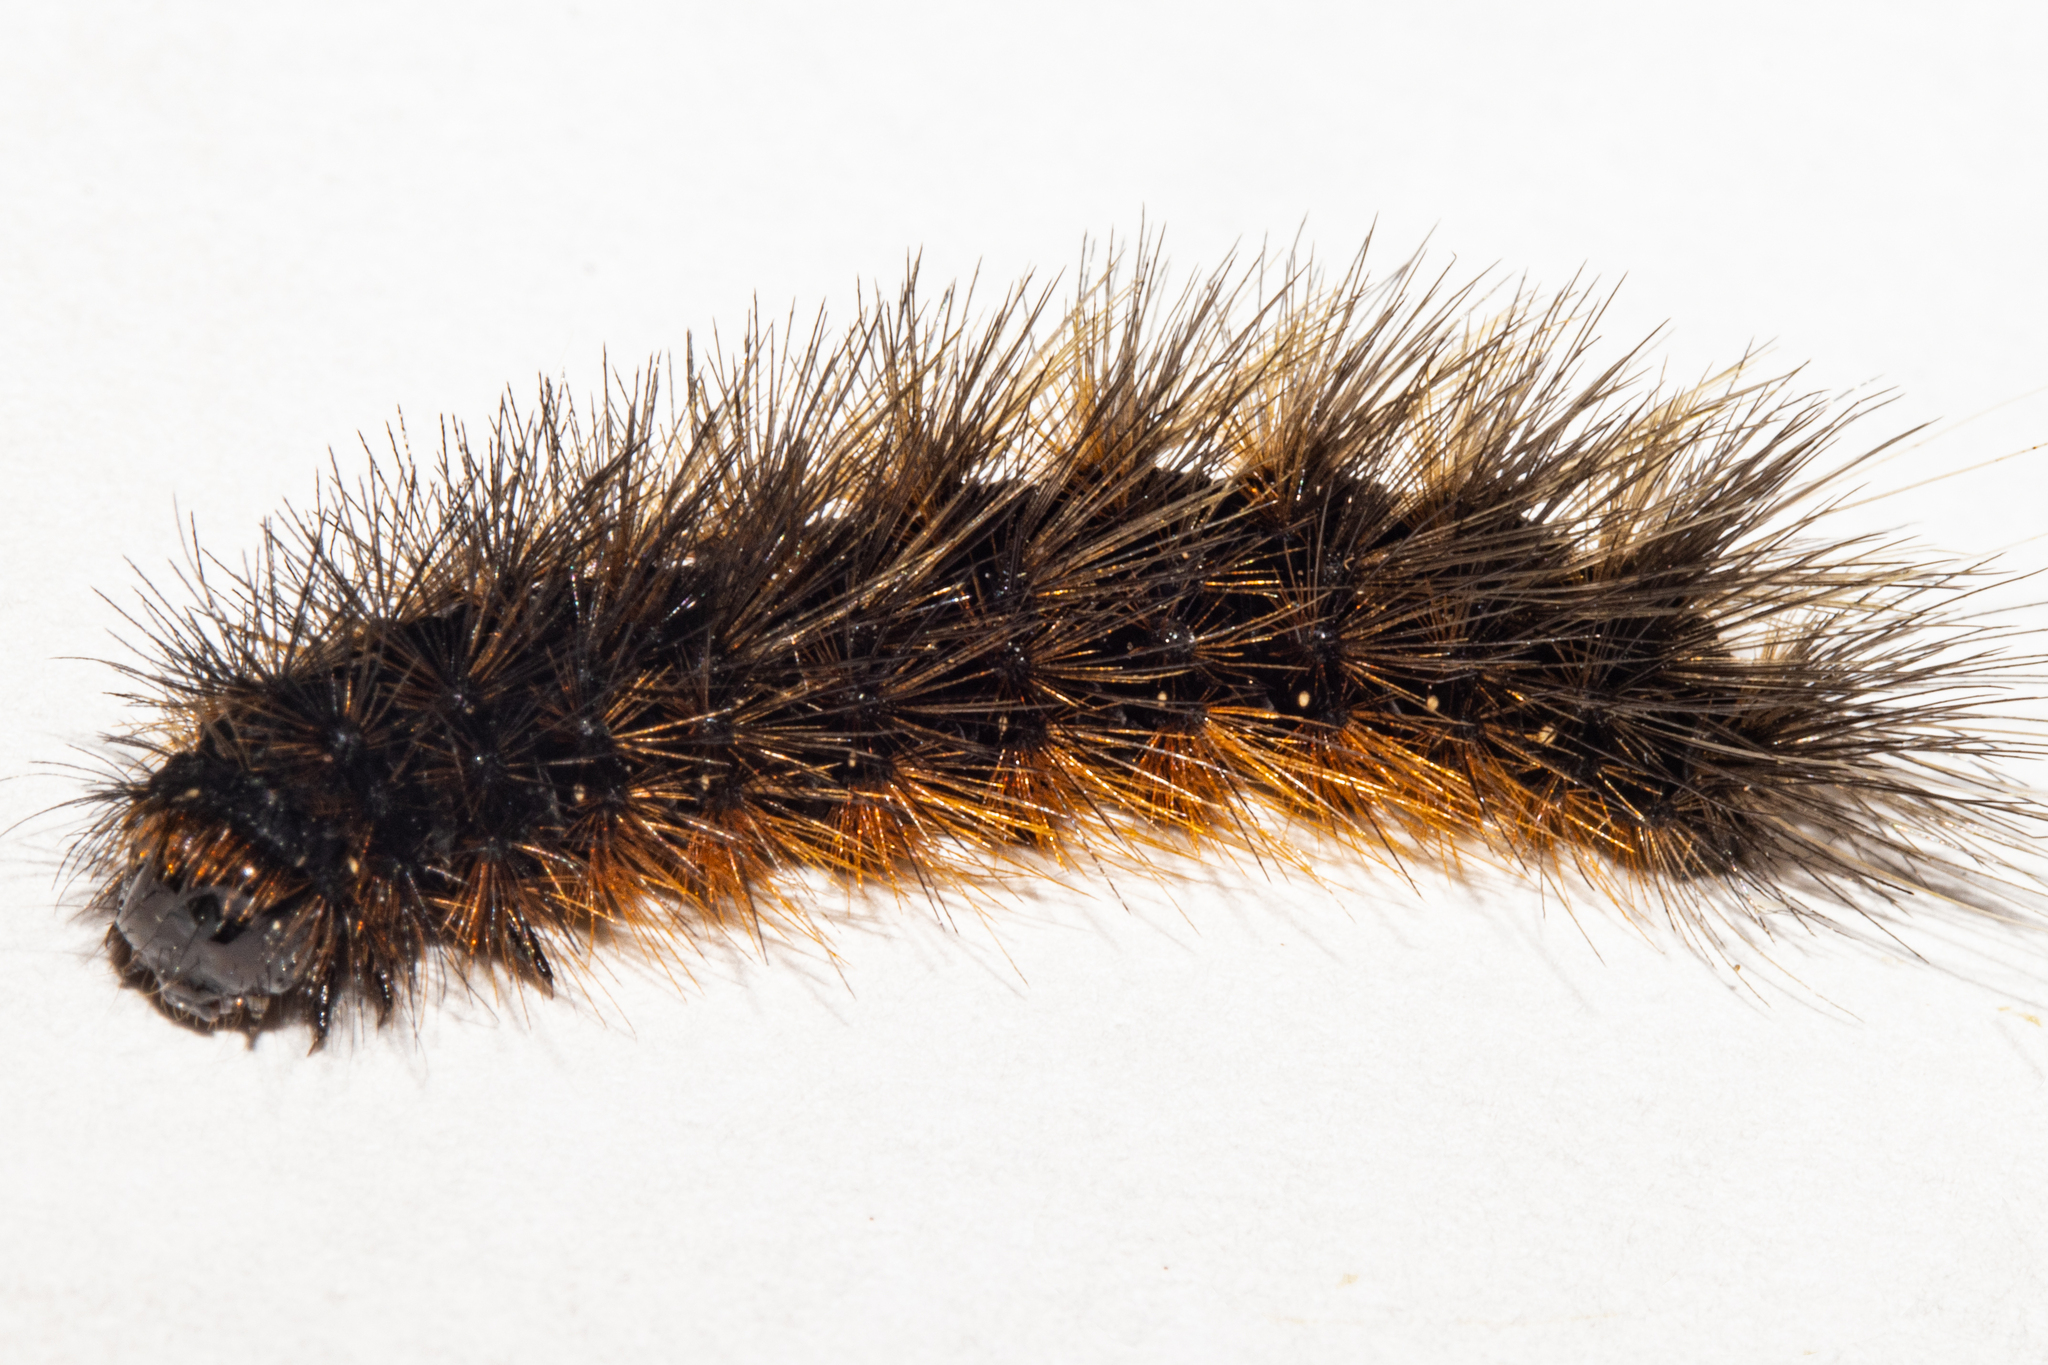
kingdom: Animalia
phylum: Arthropoda
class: Insecta
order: Lepidoptera
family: Erebidae
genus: Metacrias
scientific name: Metacrias huttoni
